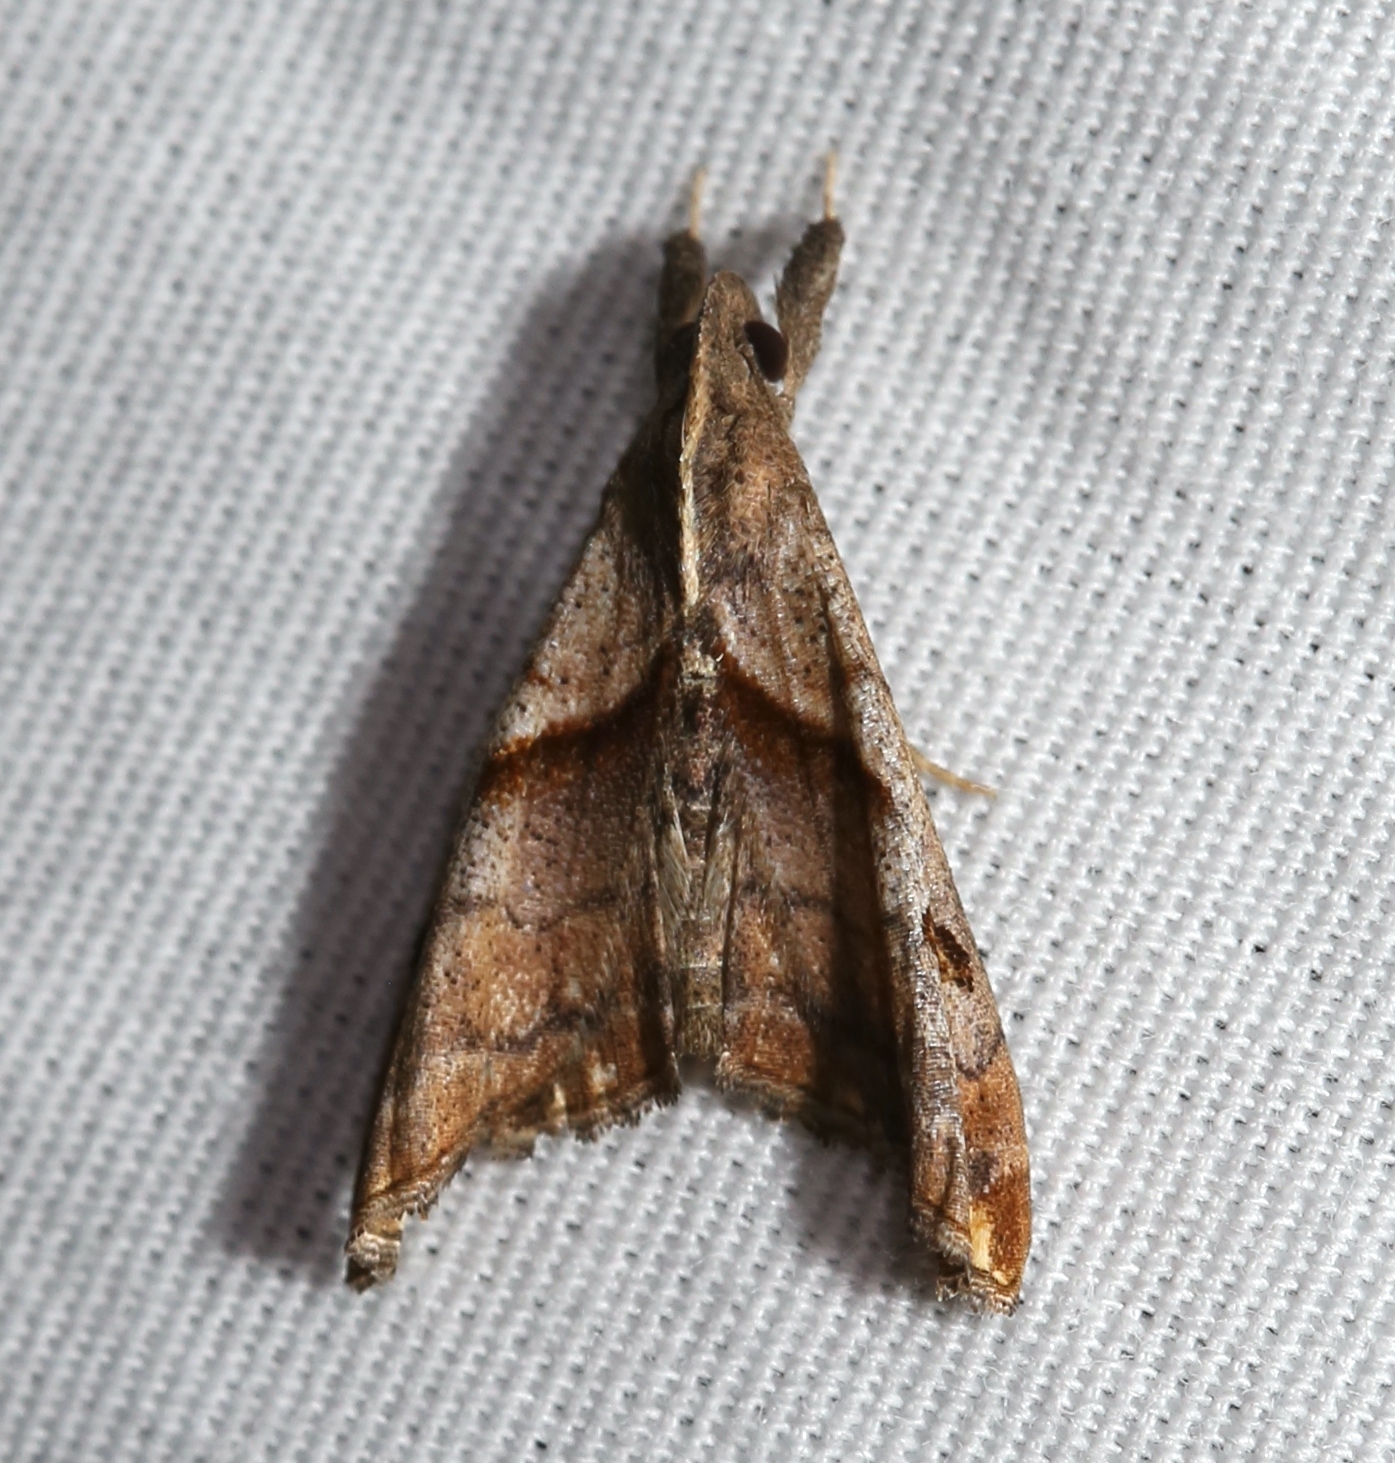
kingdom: Animalia
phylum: Arthropoda
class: Insecta
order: Lepidoptera
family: Erebidae
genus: Palthis
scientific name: Palthis angulalis
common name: Dark-spotted palthis moth
